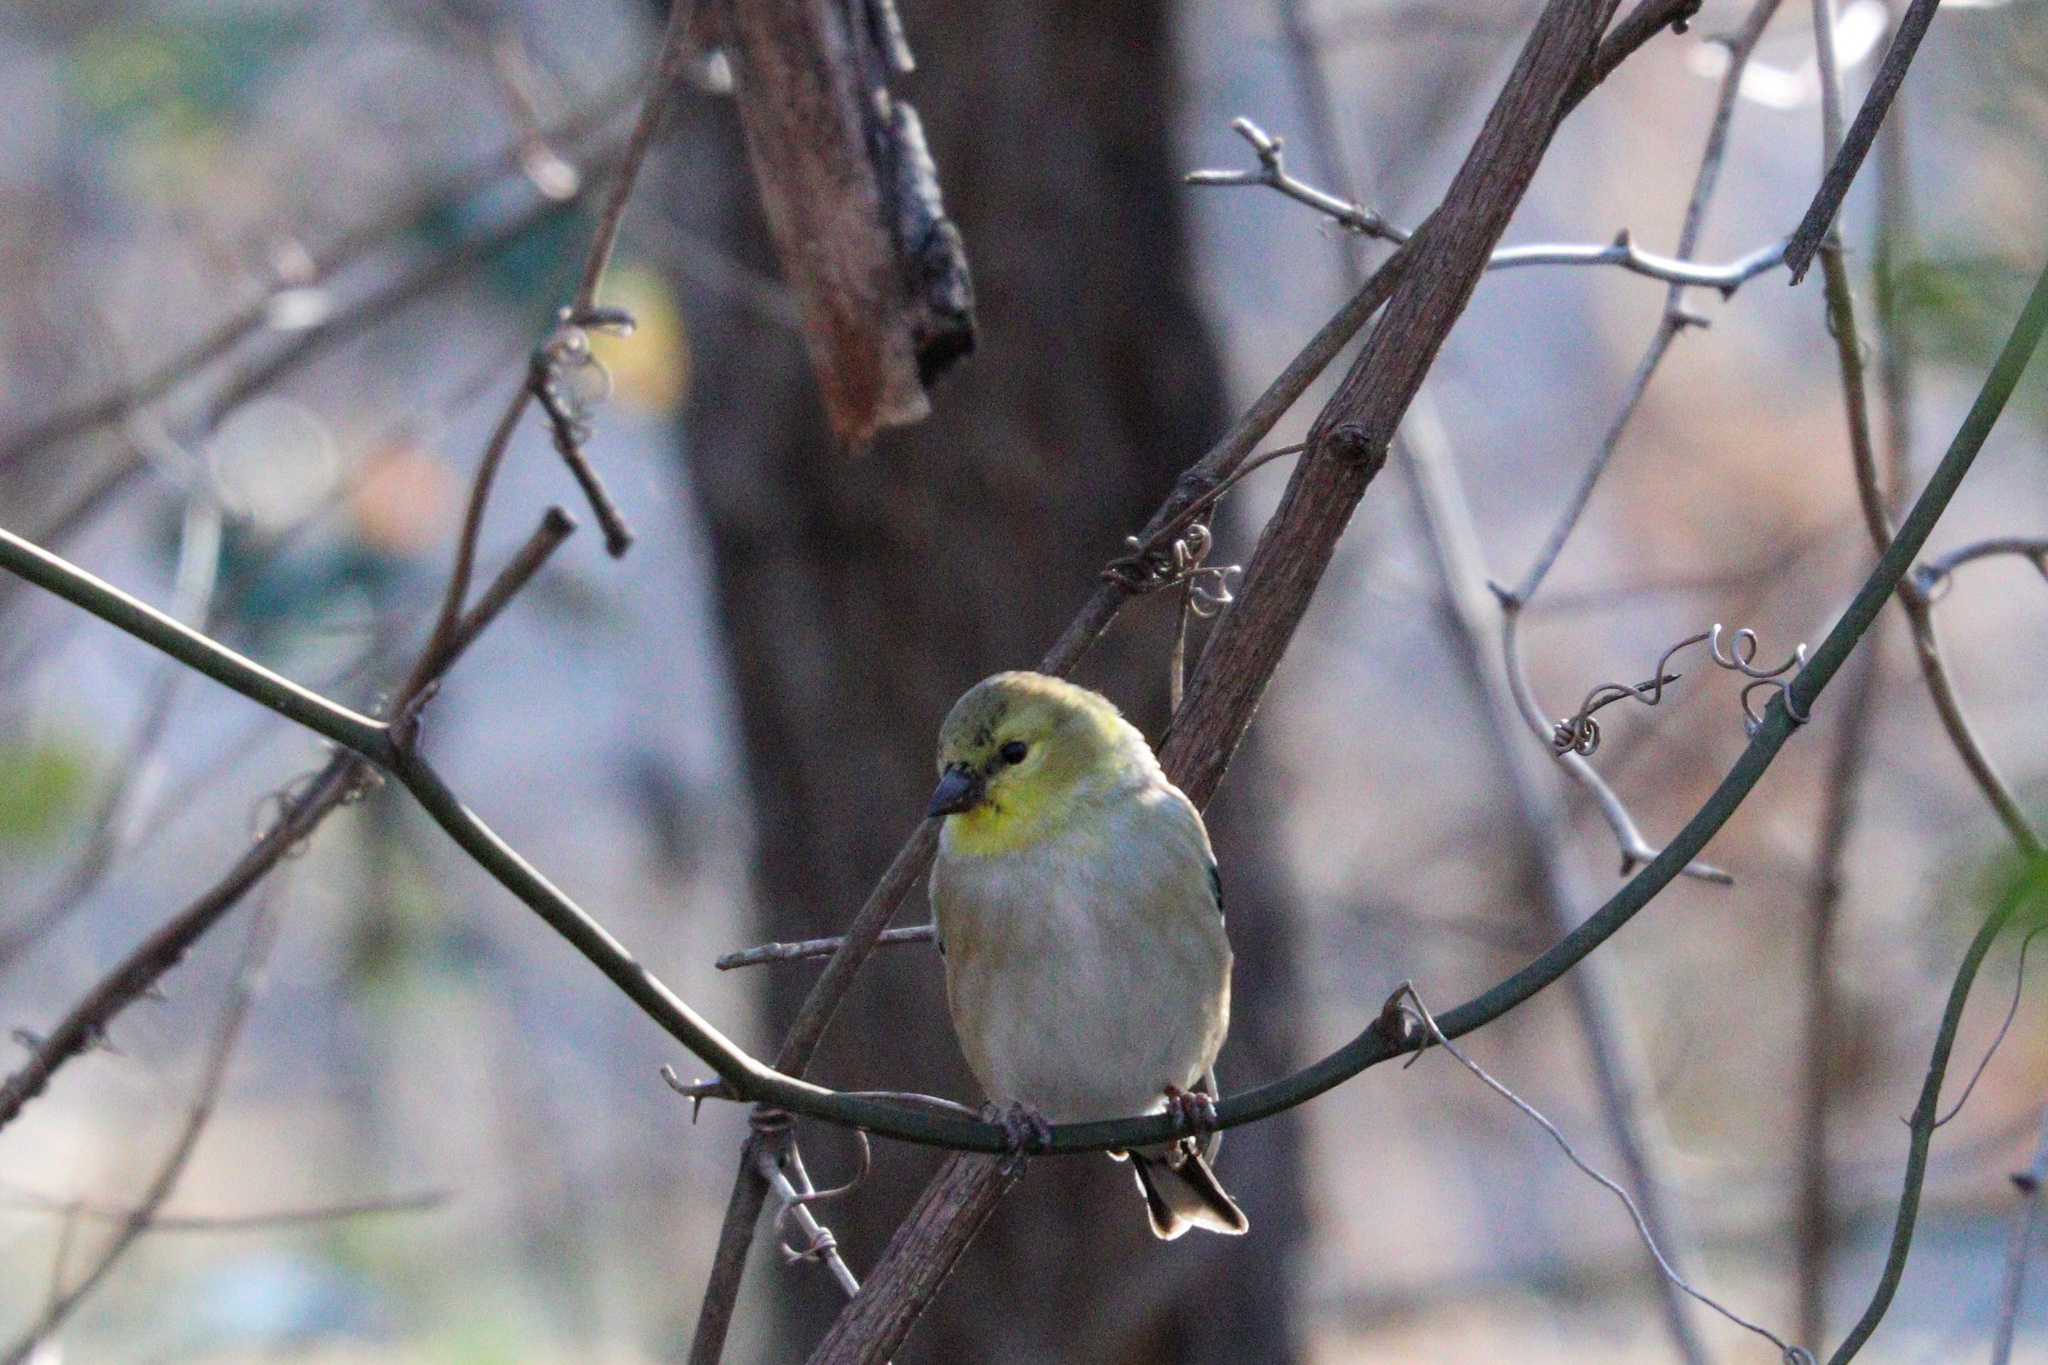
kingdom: Animalia
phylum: Chordata
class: Aves
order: Passeriformes
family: Fringillidae
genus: Spinus
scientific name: Spinus tristis
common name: American goldfinch
